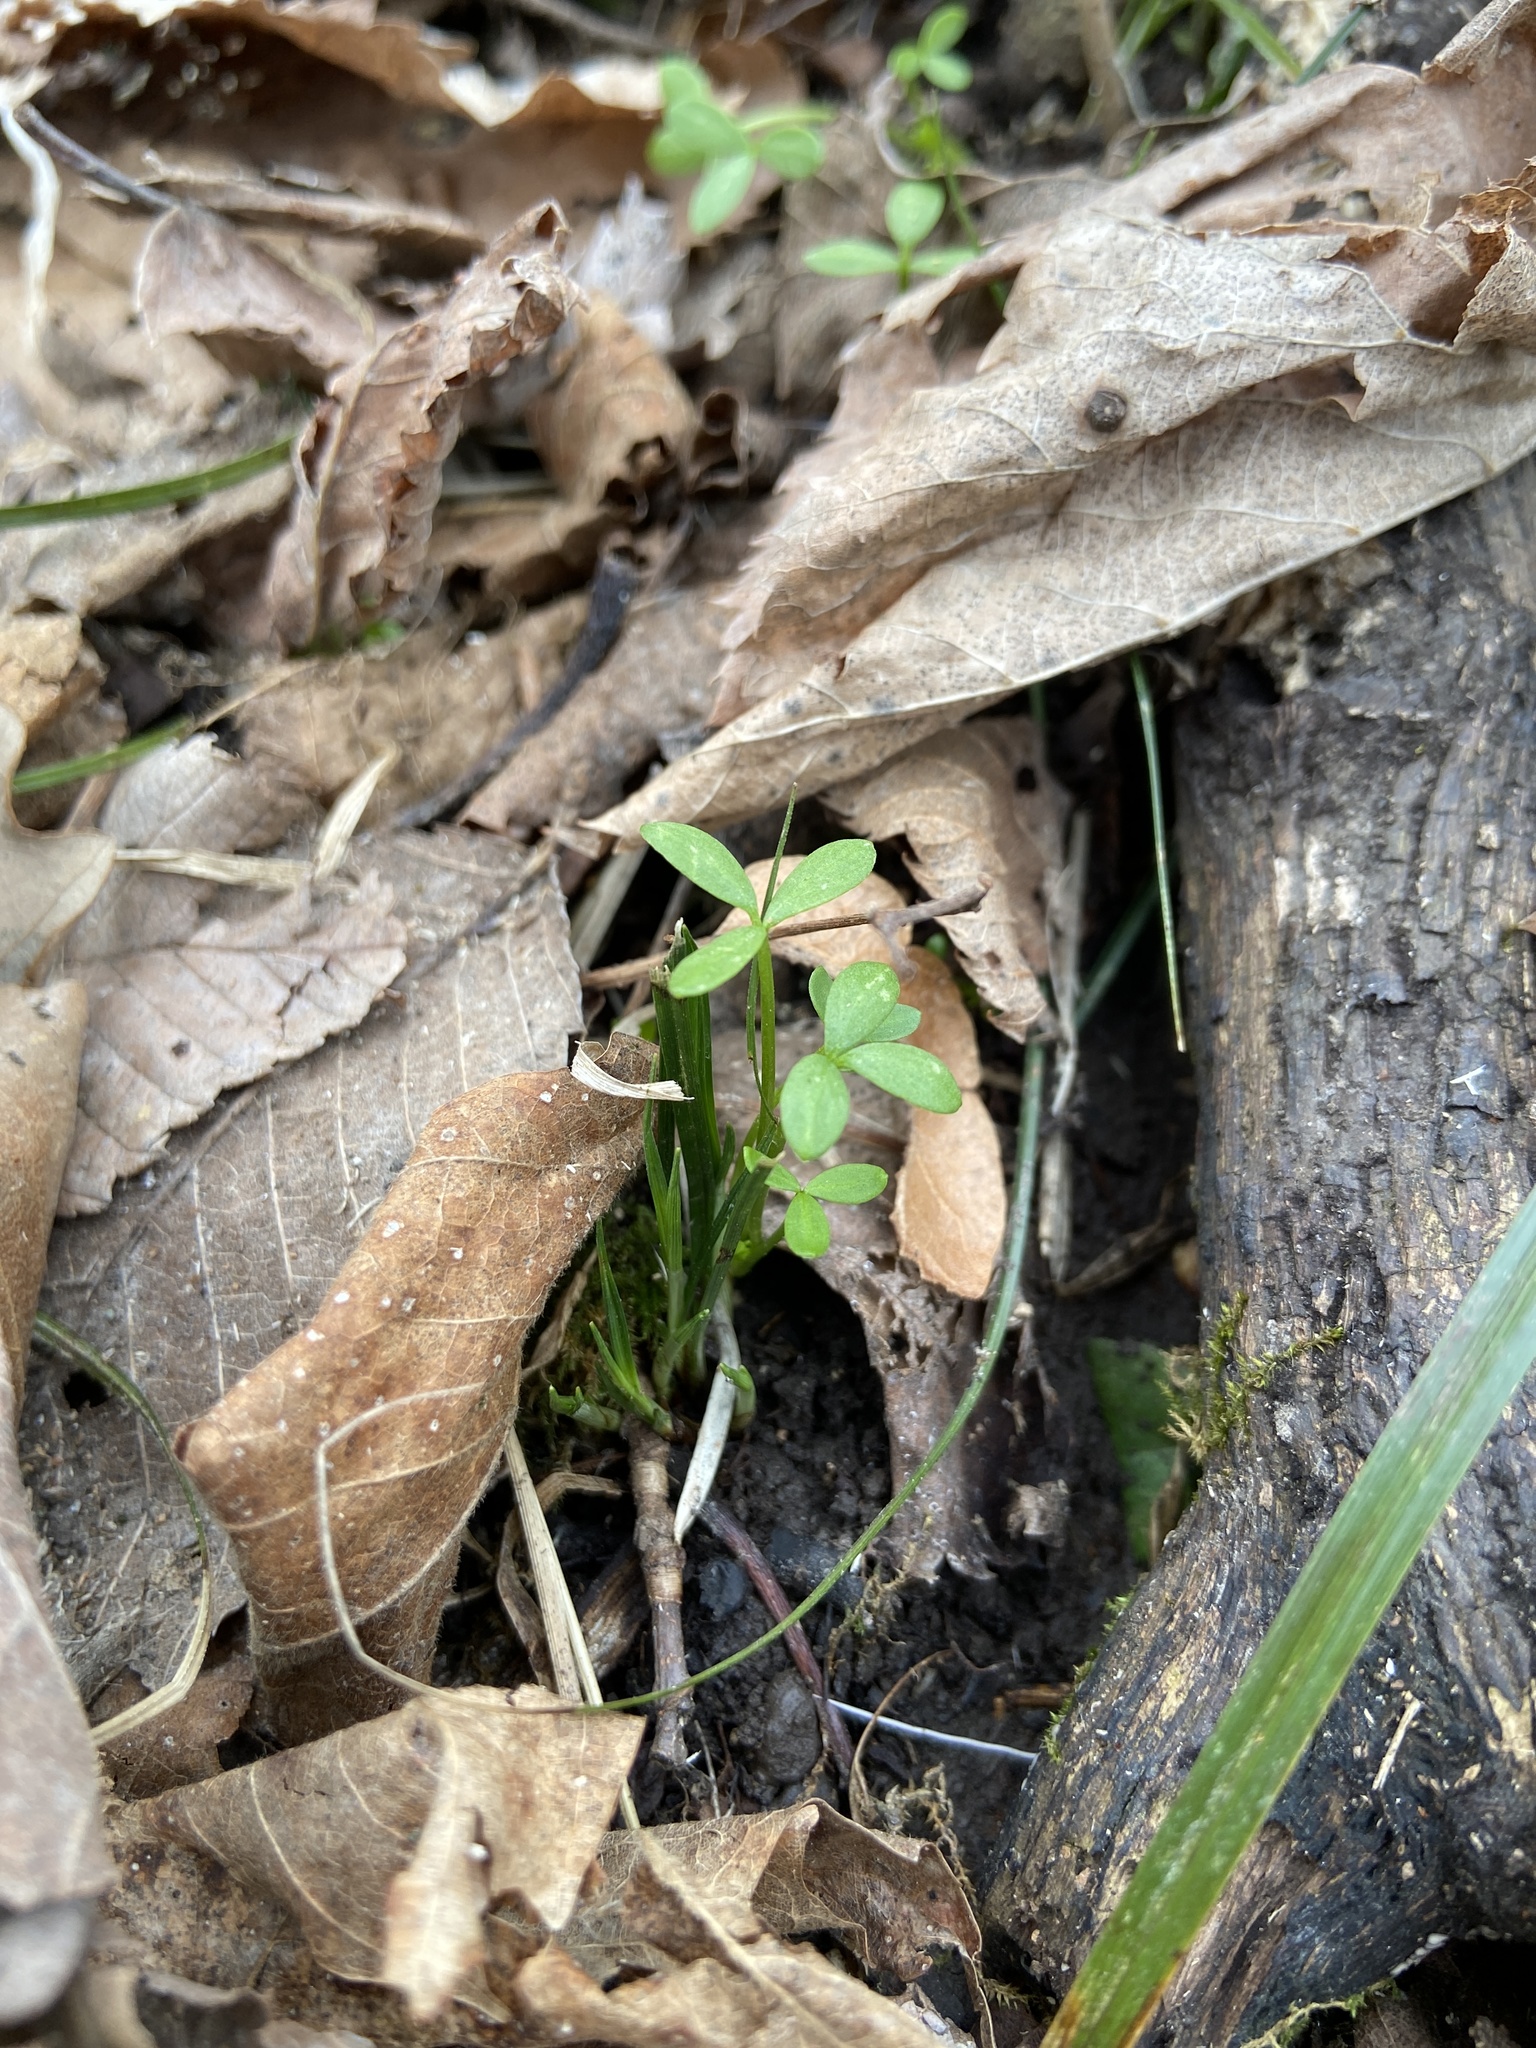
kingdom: Plantae
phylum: Tracheophyta
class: Magnoliopsida
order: Brassicales
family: Limnanthaceae
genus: Floerkea
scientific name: Floerkea proserpinacoides
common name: False mermaid
